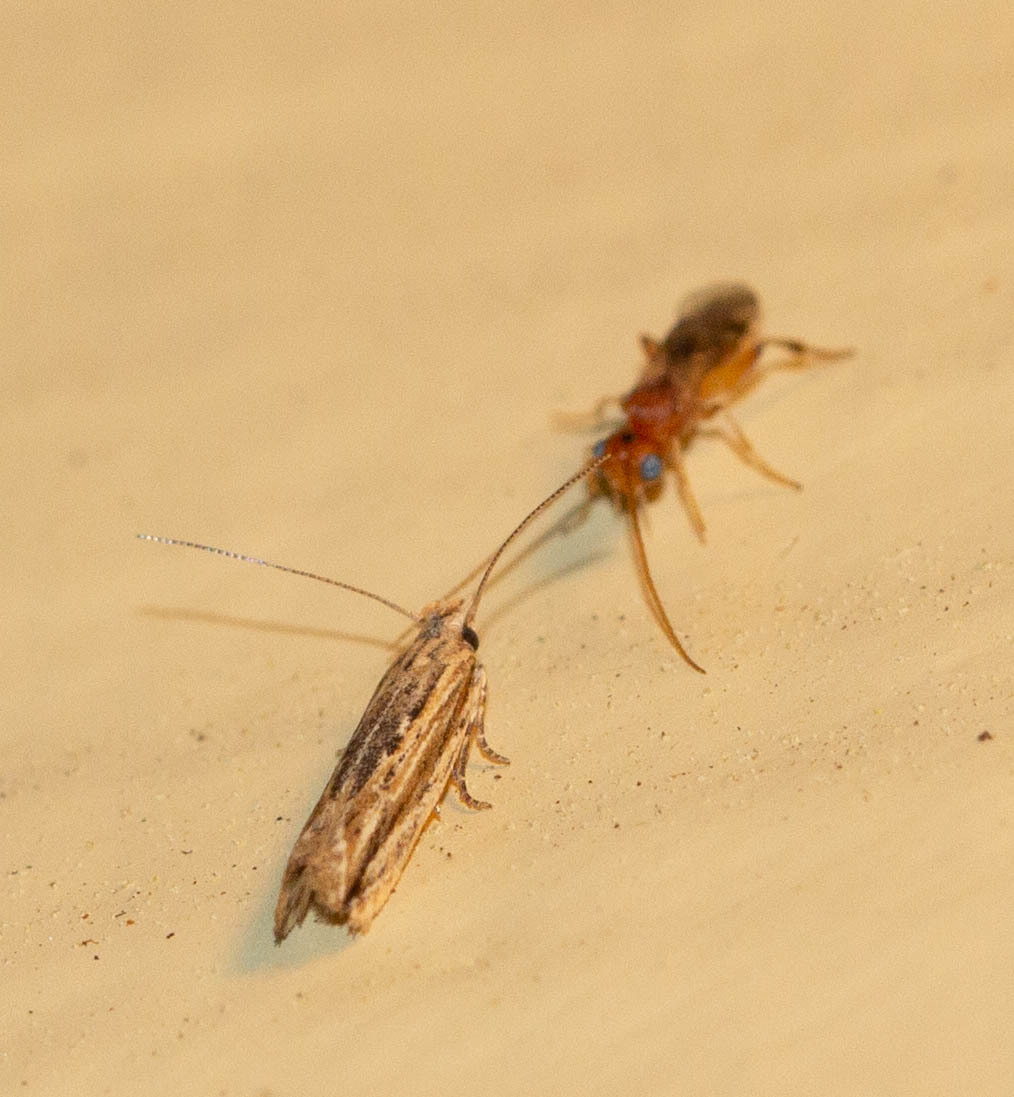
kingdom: Animalia
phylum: Arthropoda
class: Insecta
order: Lepidoptera
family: Gelechiidae
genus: Symmetrischema
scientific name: Symmetrischema striatella
